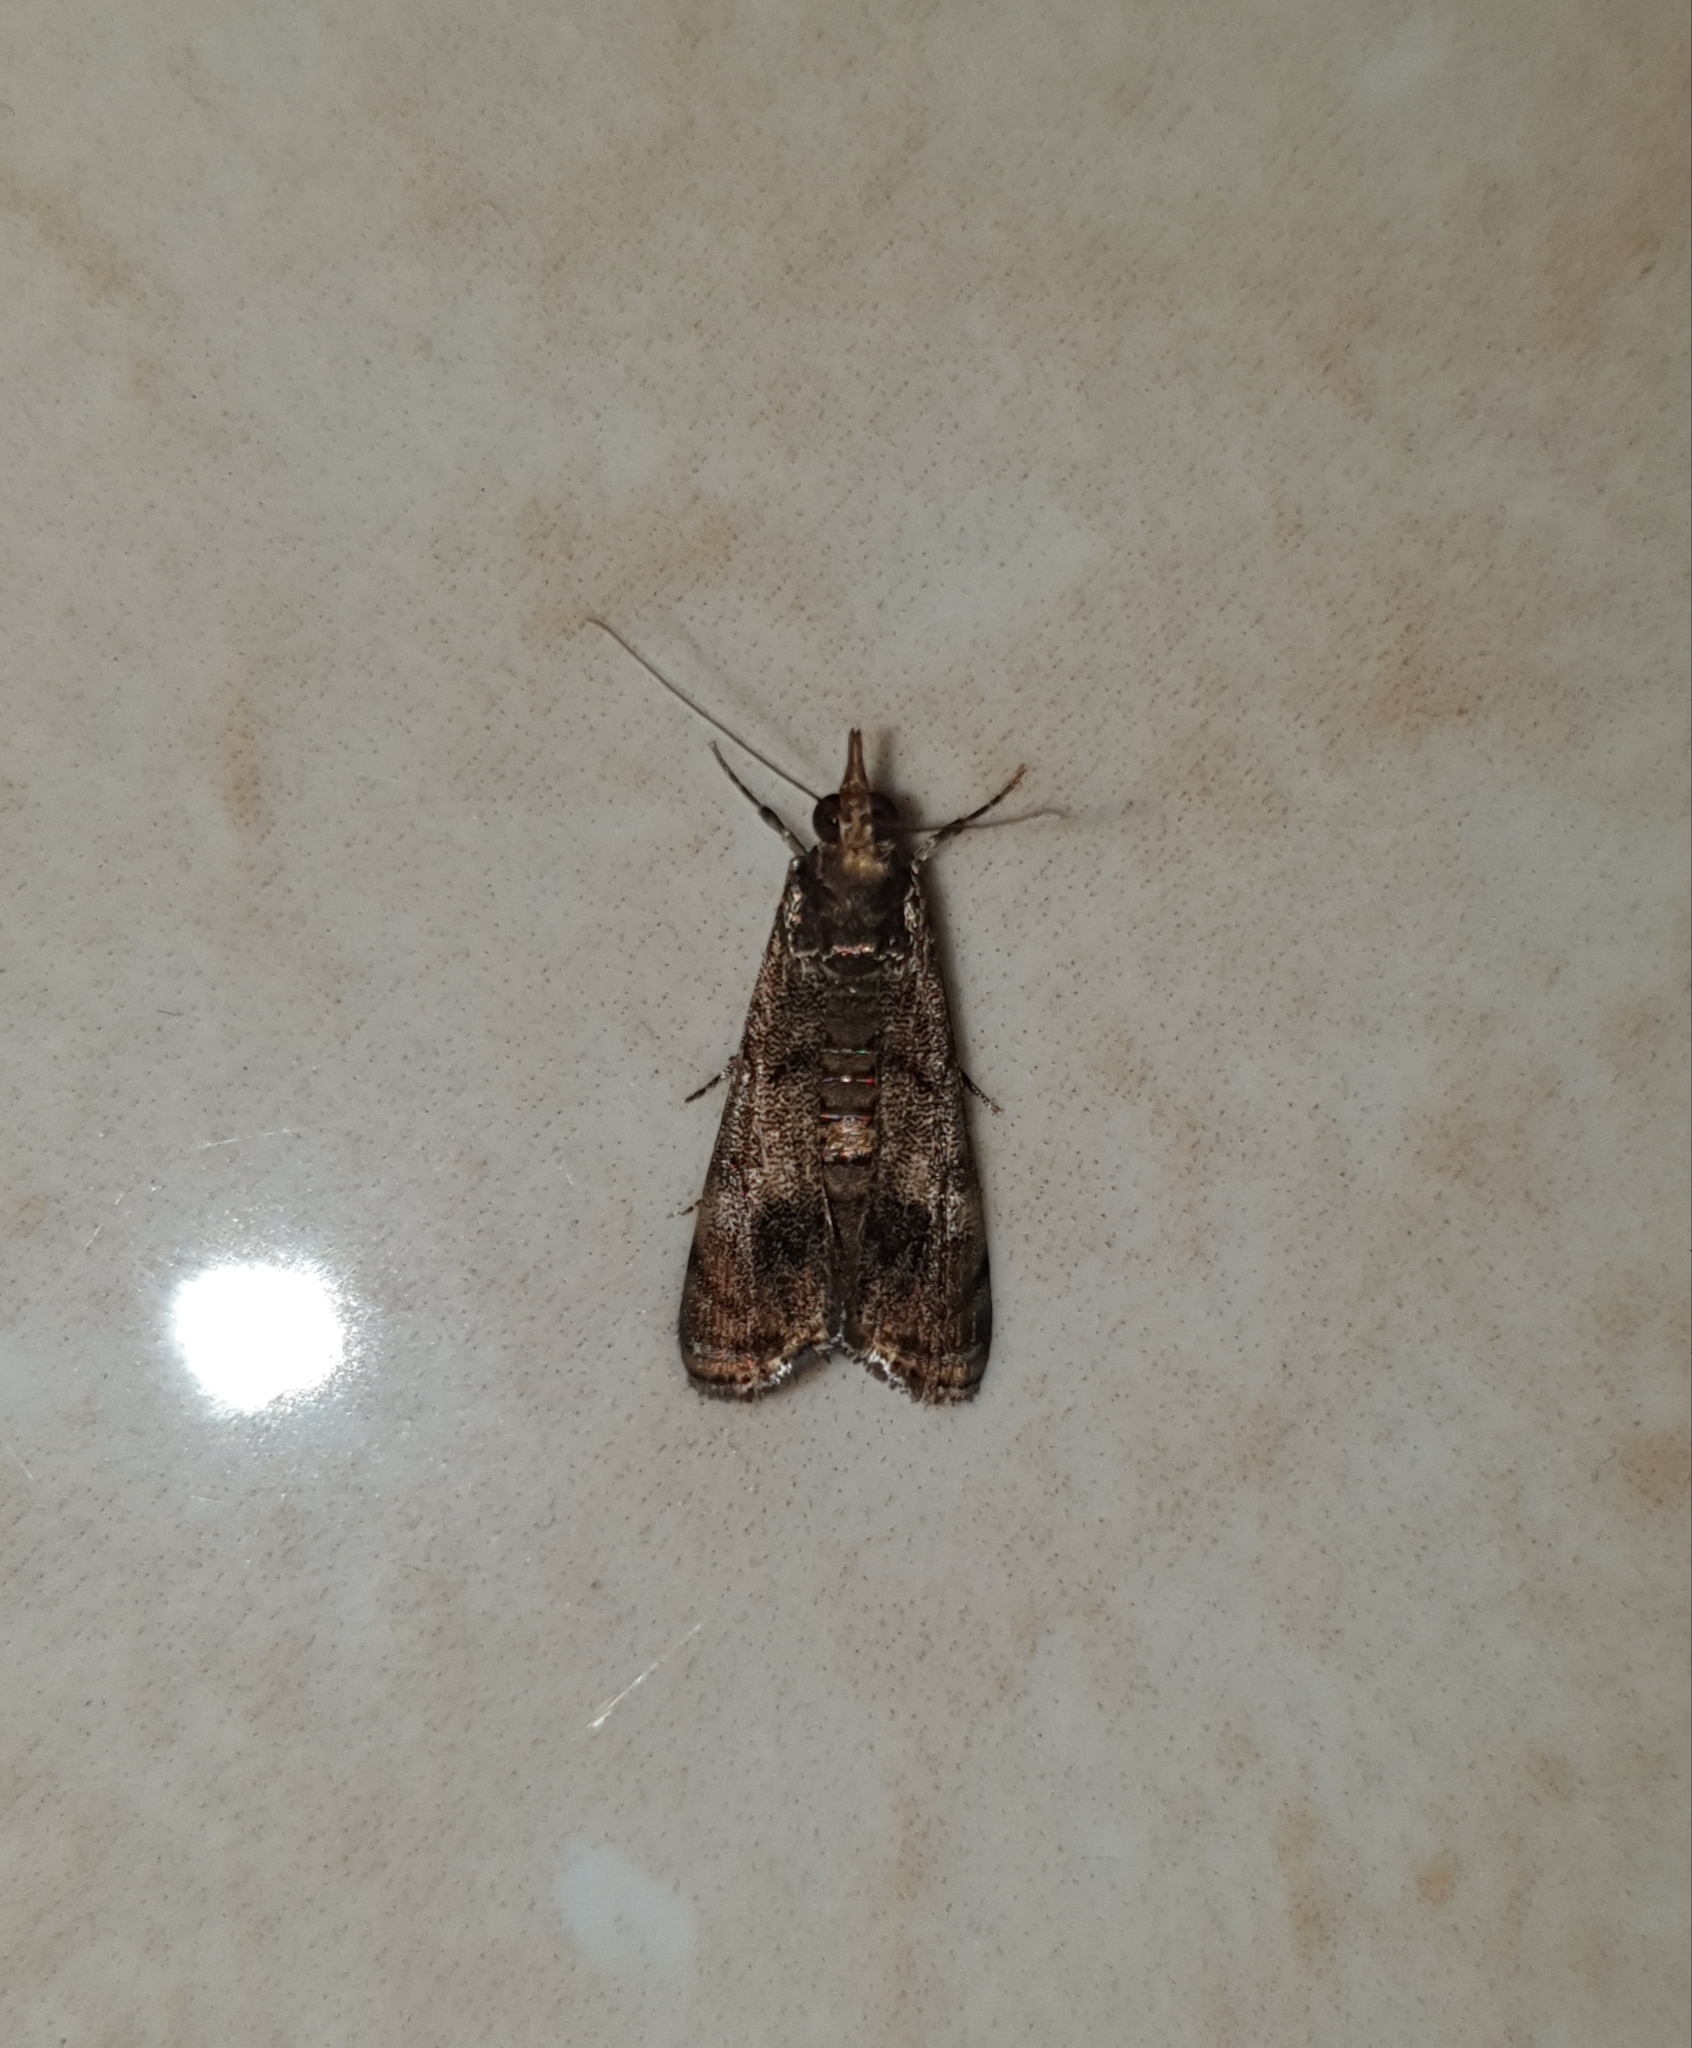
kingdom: Animalia
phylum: Arthropoda
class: Insecta
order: Lepidoptera
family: Crambidae
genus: Noorda
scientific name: Noorda blitealis
